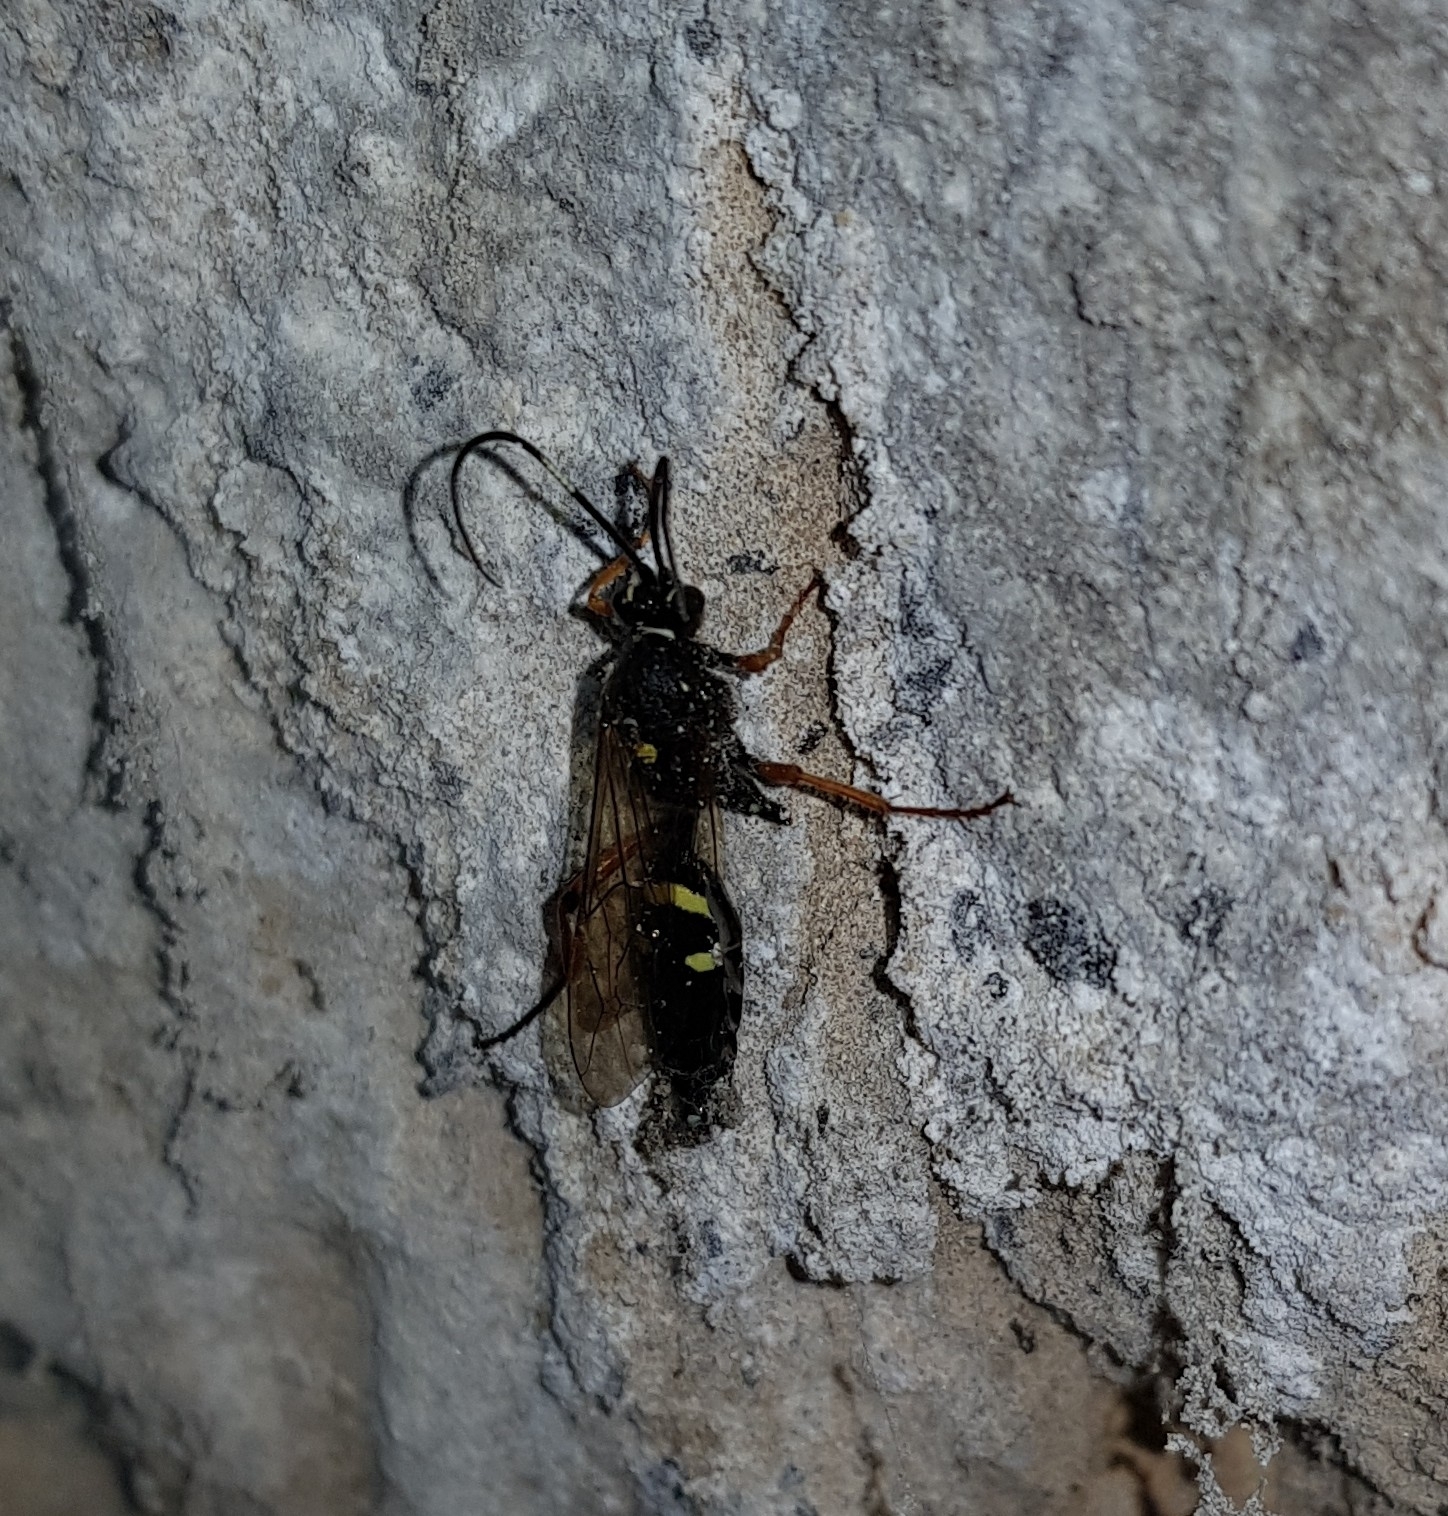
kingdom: Animalia
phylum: Arthropoda
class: Insecta
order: Hymenoptera
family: Ichneumonidae
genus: Diphyus
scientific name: Diphyus quadripunctorius
